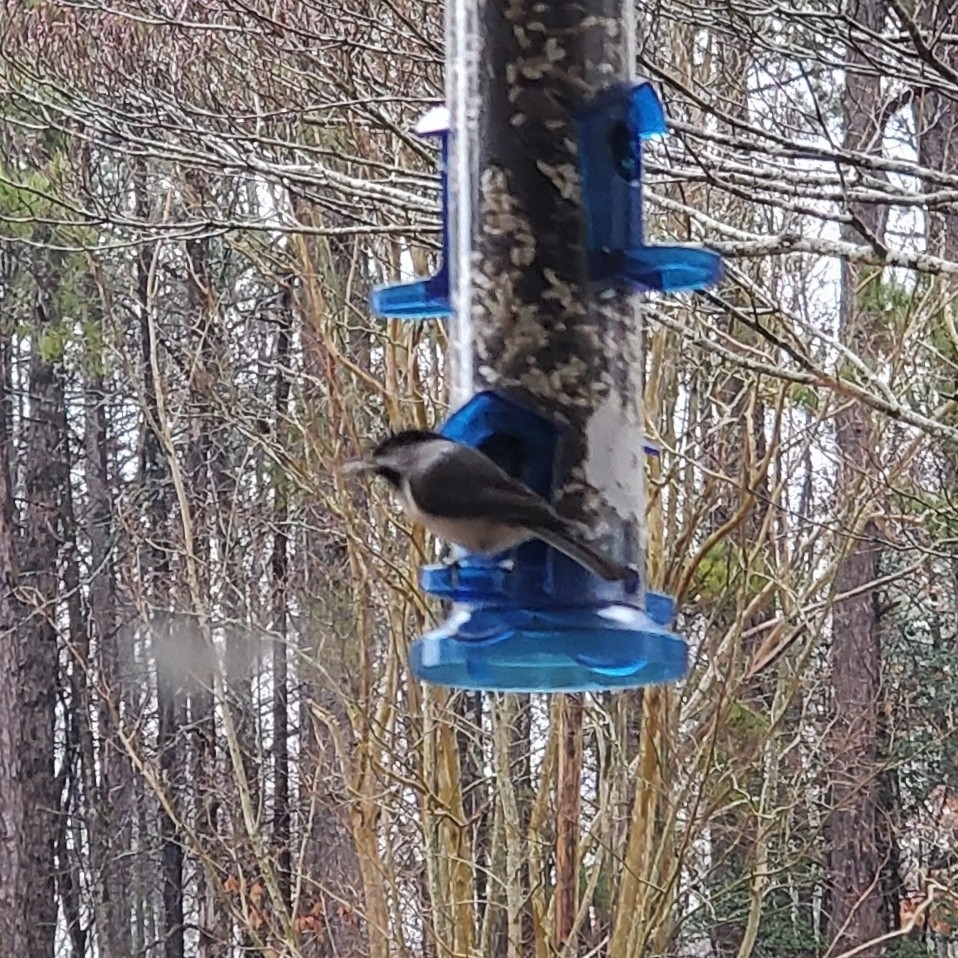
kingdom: Animalia
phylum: Chordata
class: Aves
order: Passeriformes
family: Paridae
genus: Poecile
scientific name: Poecile carolinensis
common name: Carolina chickadee
